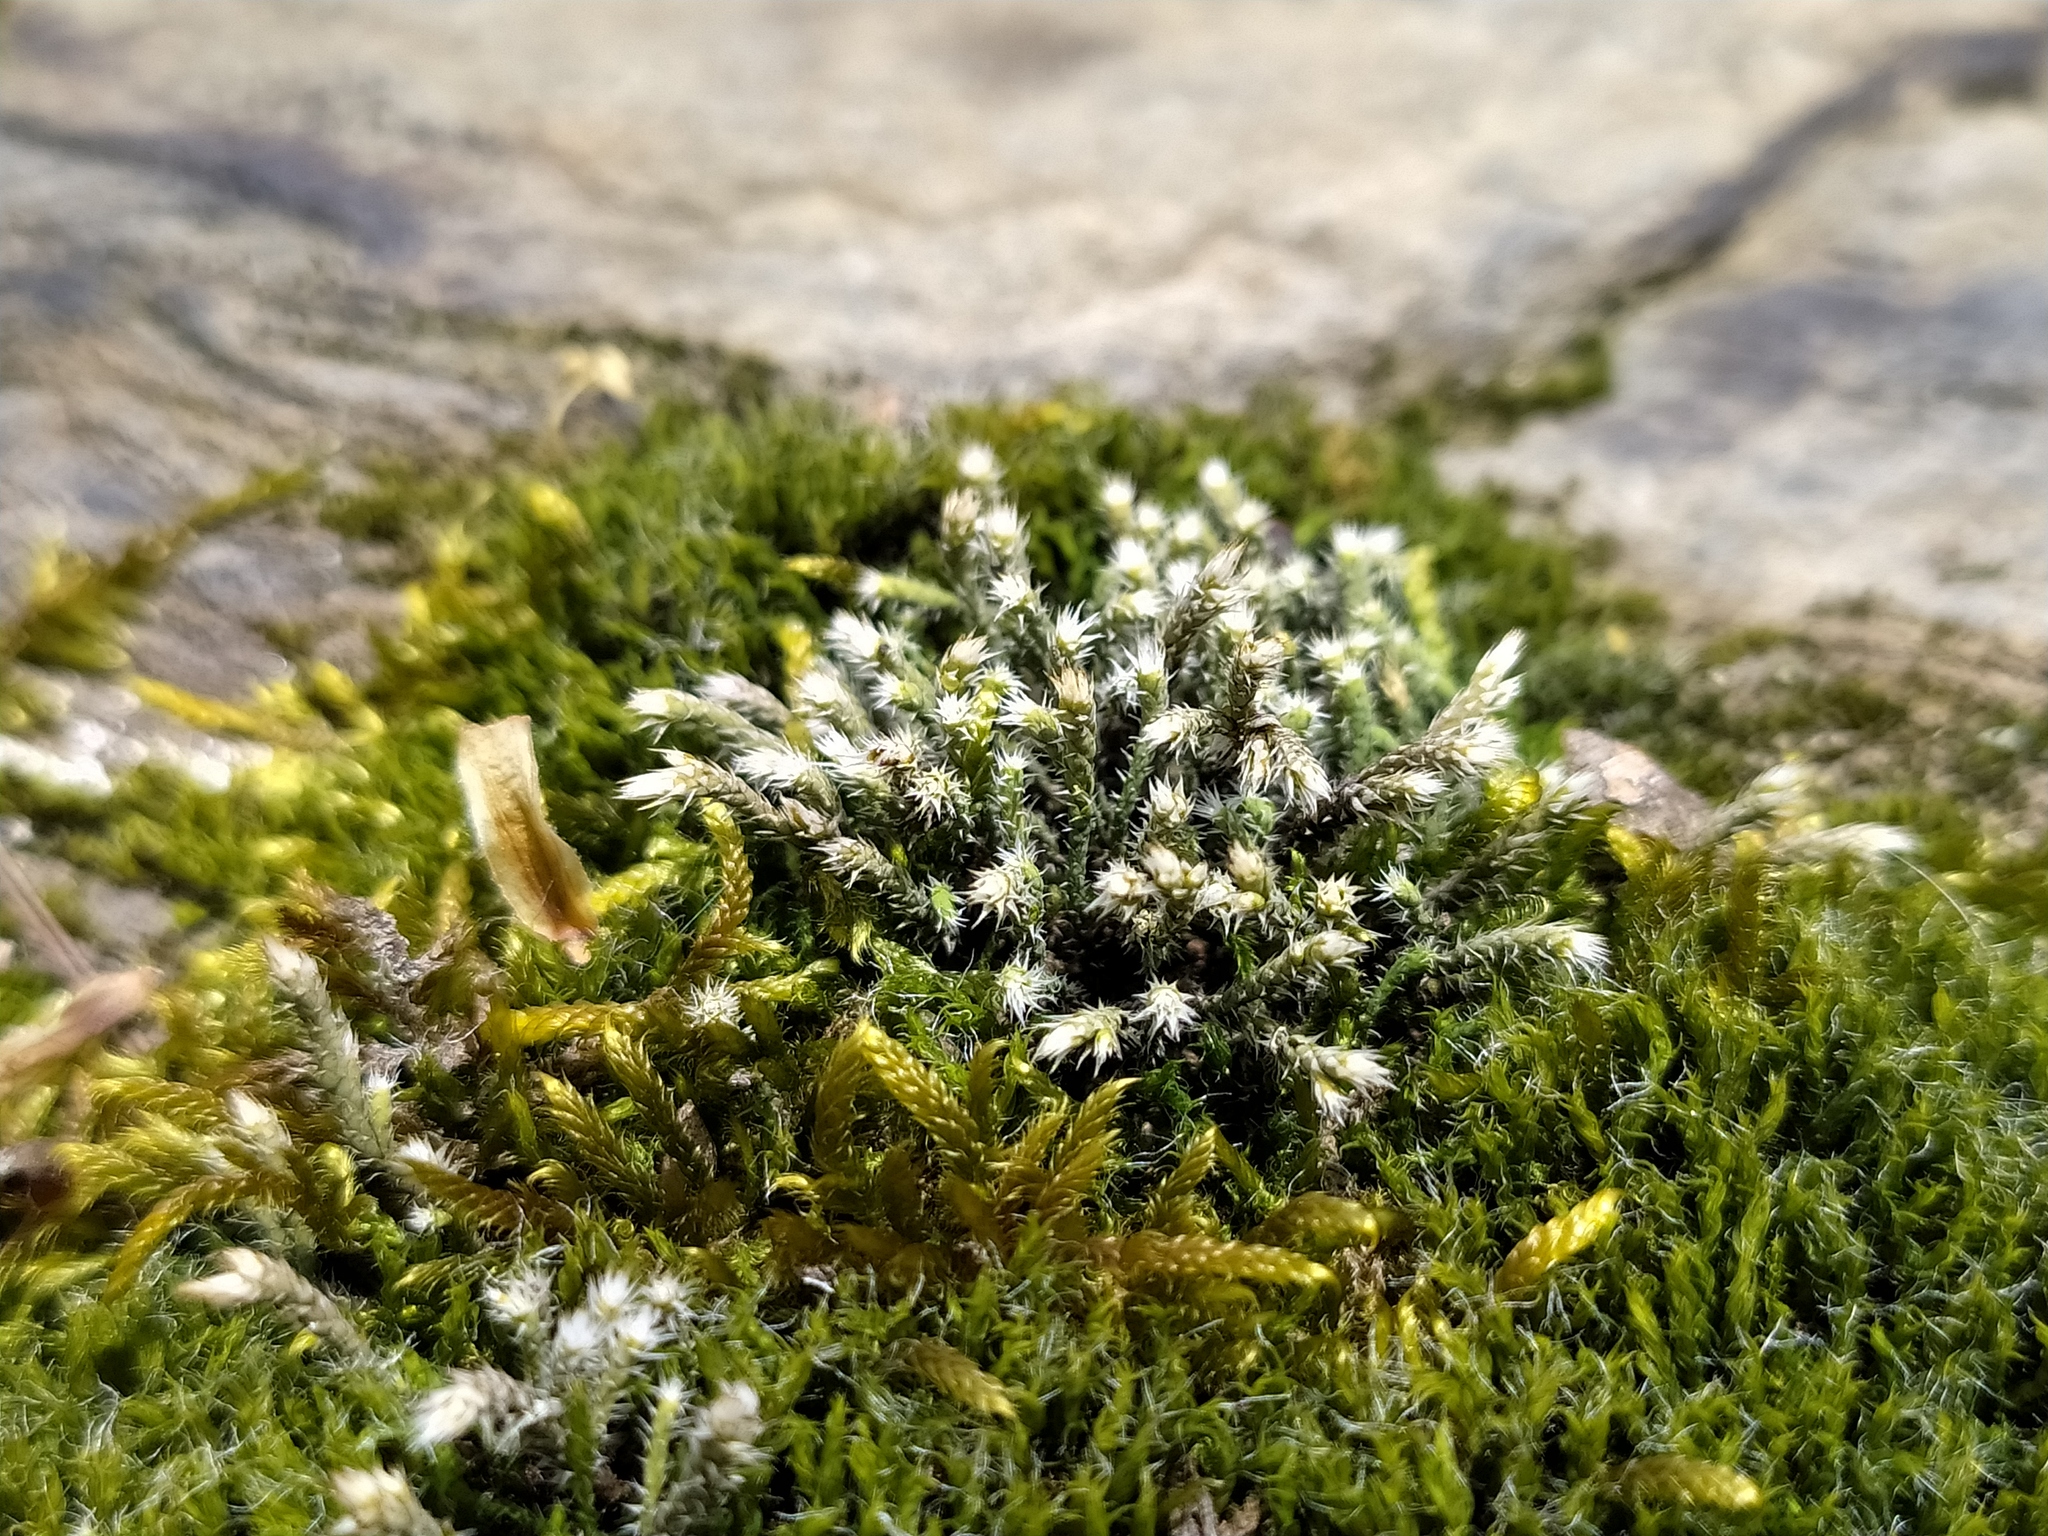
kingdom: Plantae
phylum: Bryophyta
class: Bryopsida
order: Hedwigiales
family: Hedwigiaceae
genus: Hedwigia
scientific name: Hedwigia ciliata
